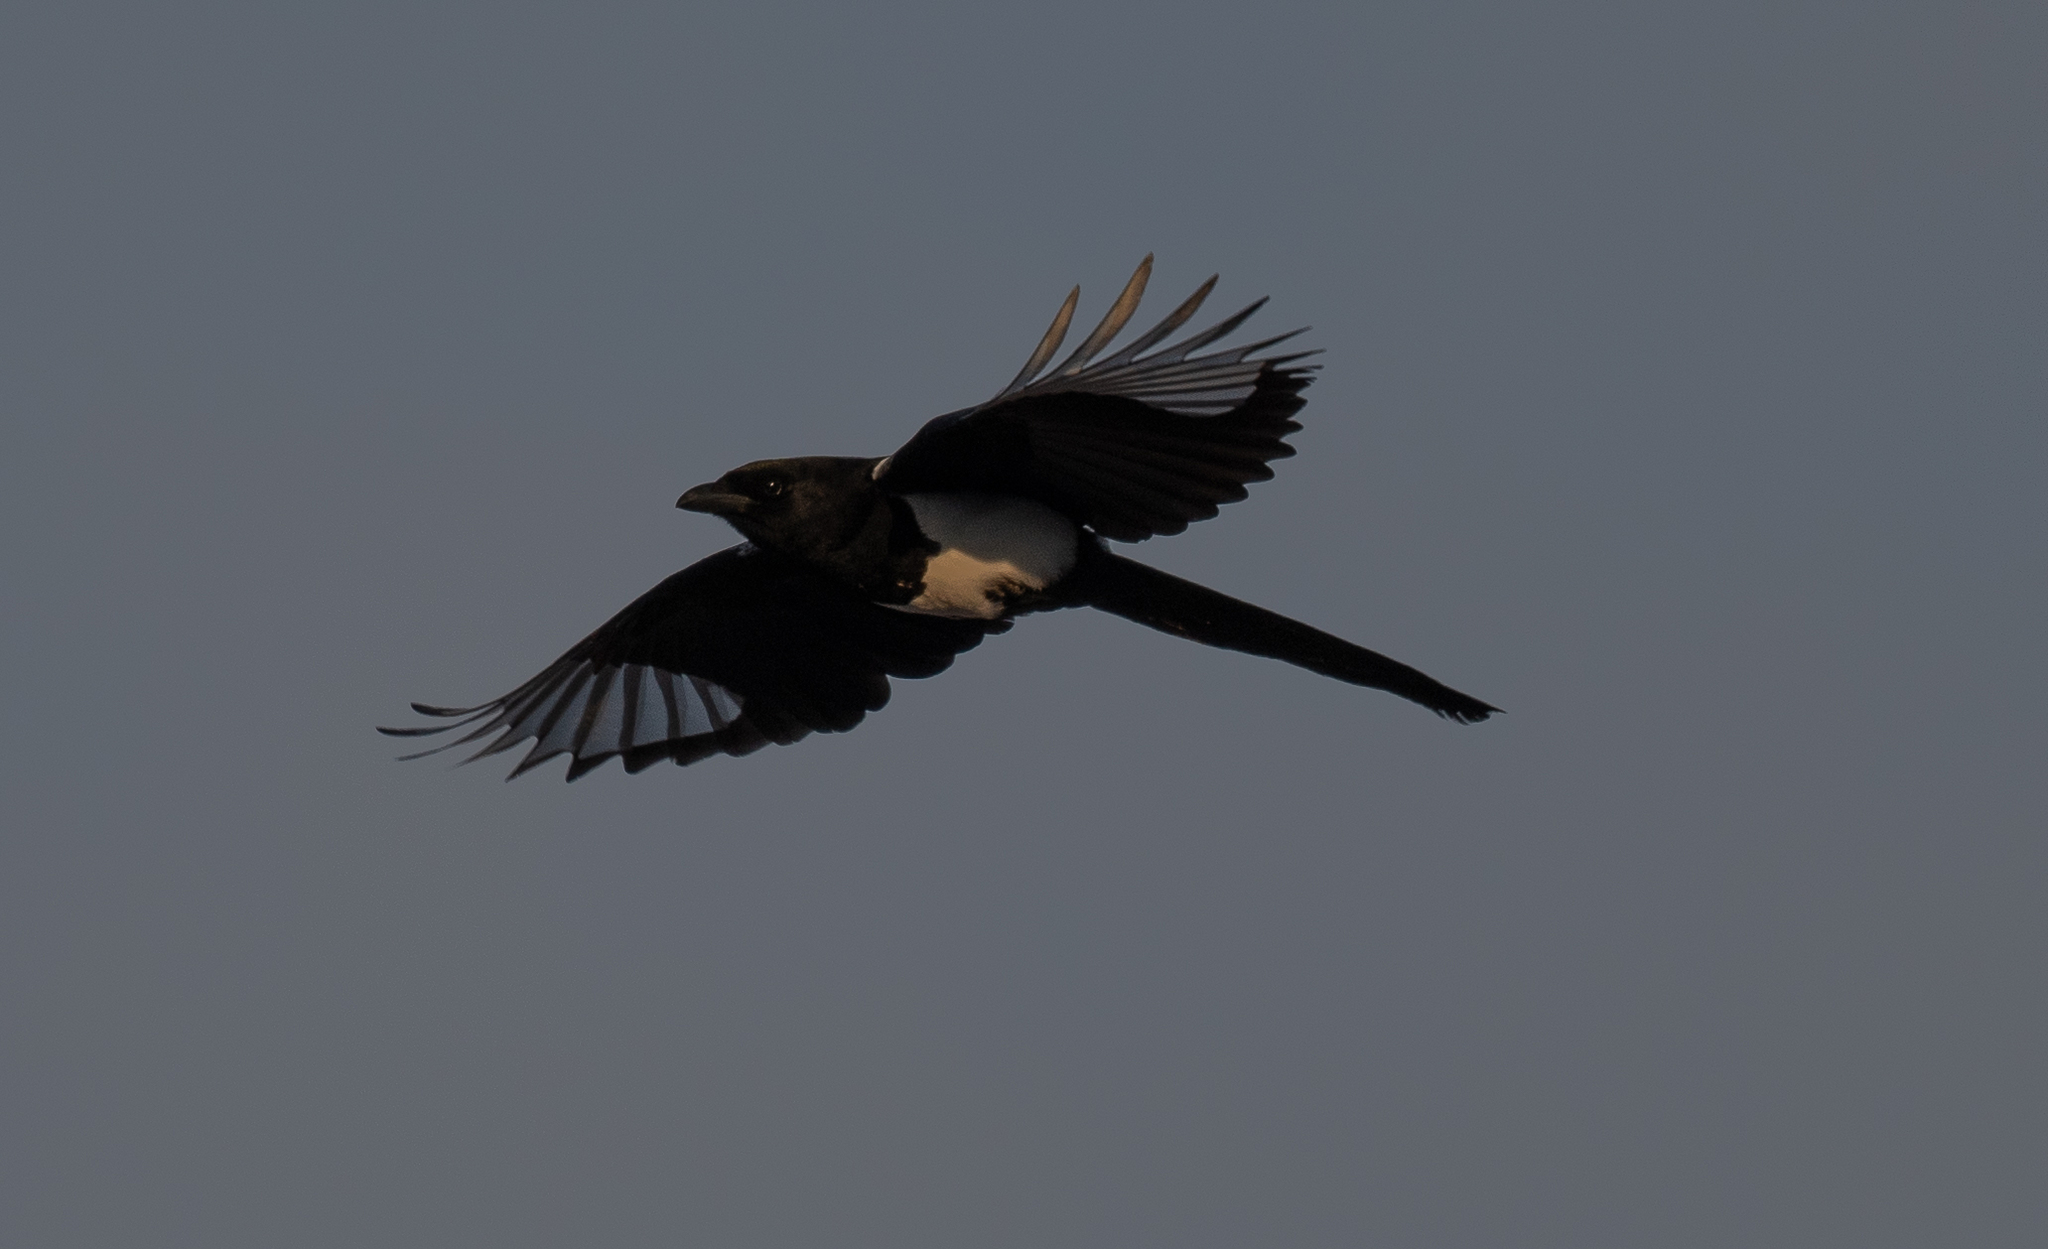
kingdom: Animalia
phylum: Chordata
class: Aves
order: Passeriformes
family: Corvidae
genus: Pica
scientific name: Pica hudsonia
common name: Black-billed magpie
